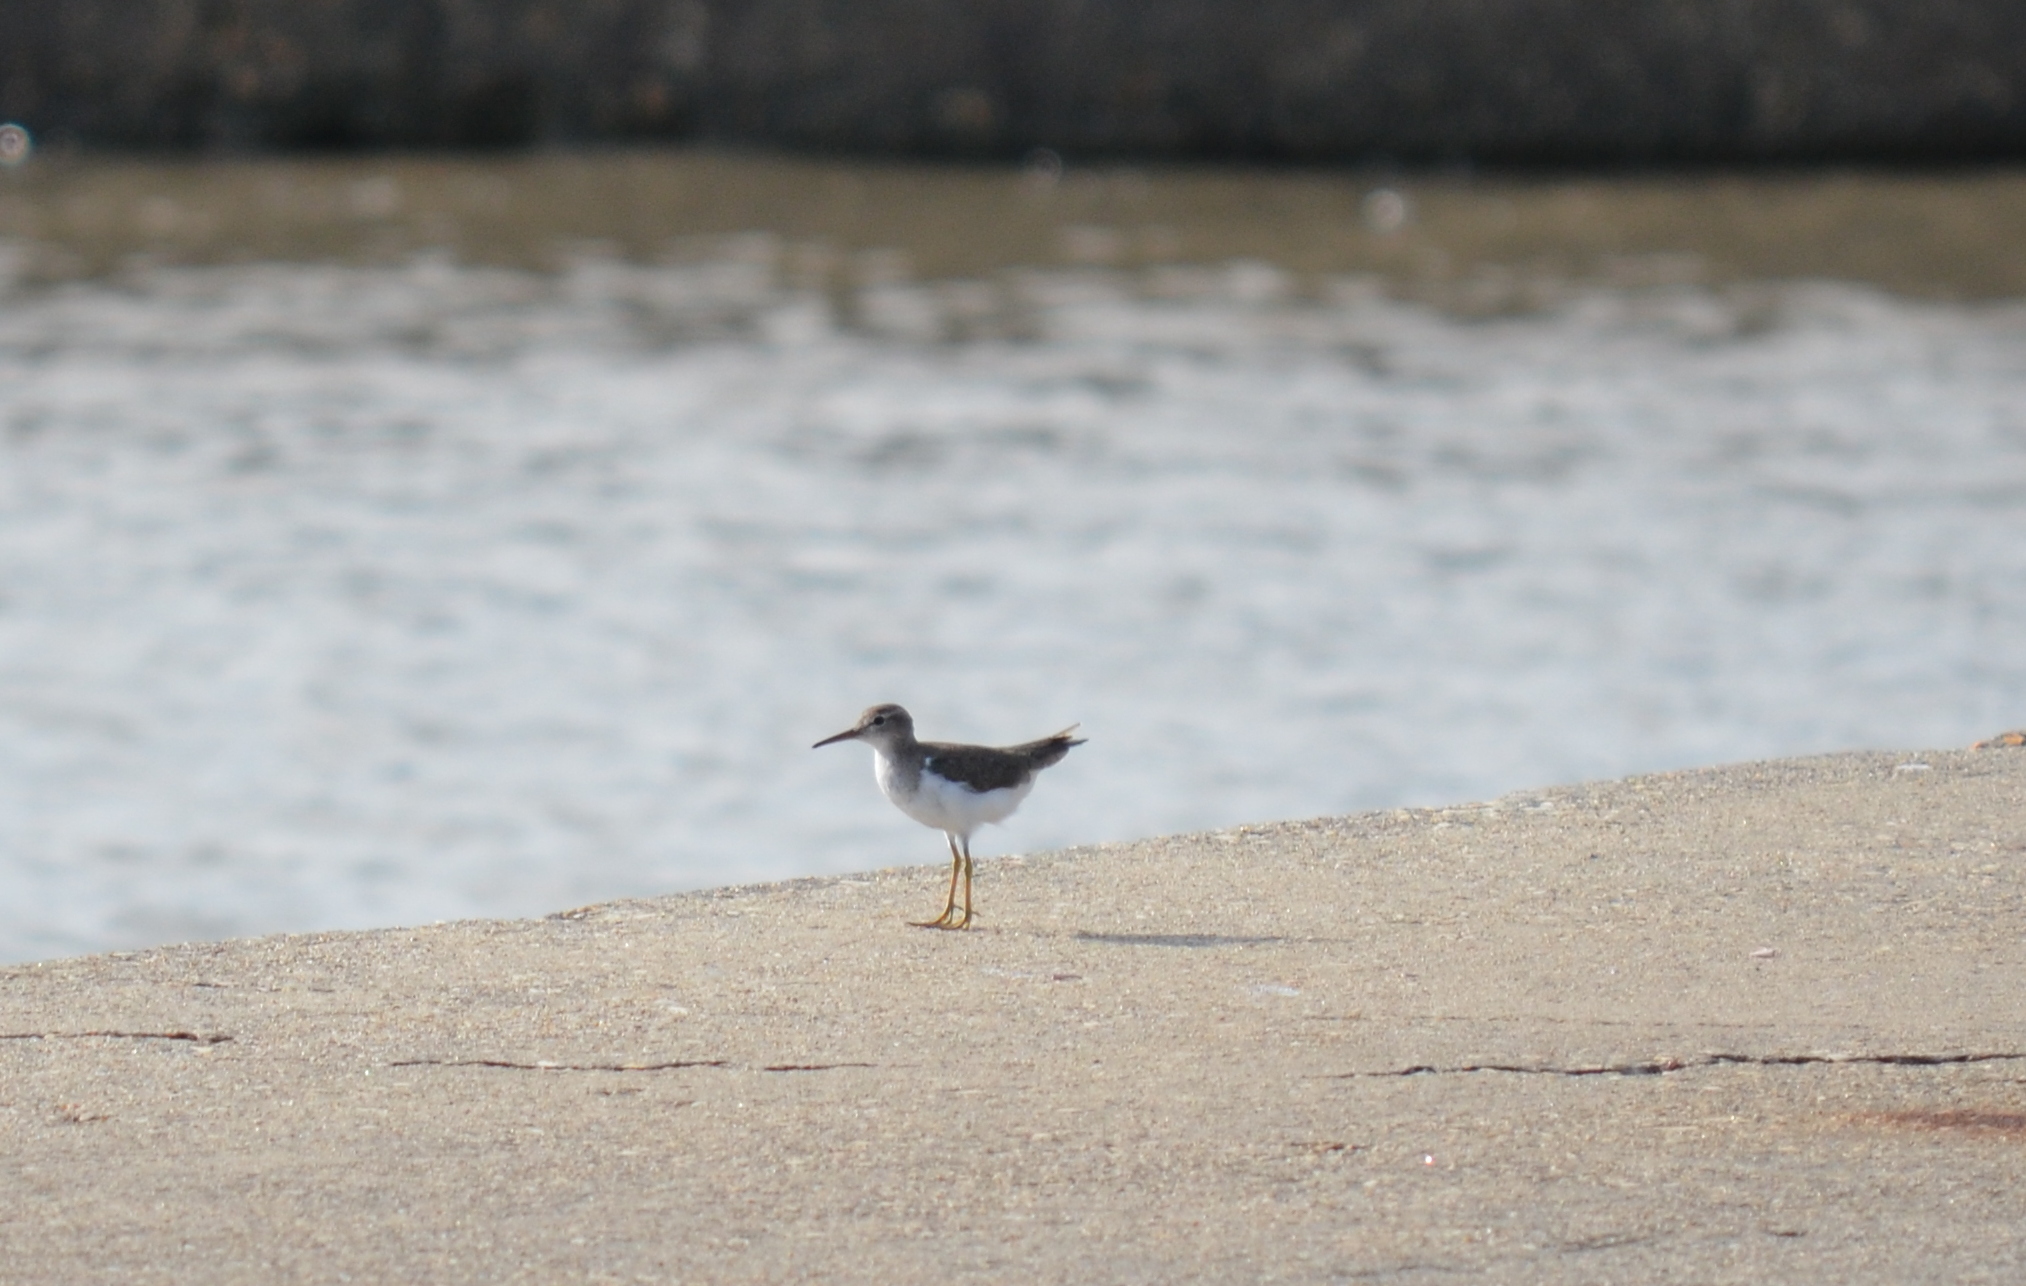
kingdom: Animalia
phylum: Chordata
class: Aves
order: Charadriiformes
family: Scolopacidae
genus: Actitis
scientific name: Actitis macularius
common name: Spotted sandpiper
